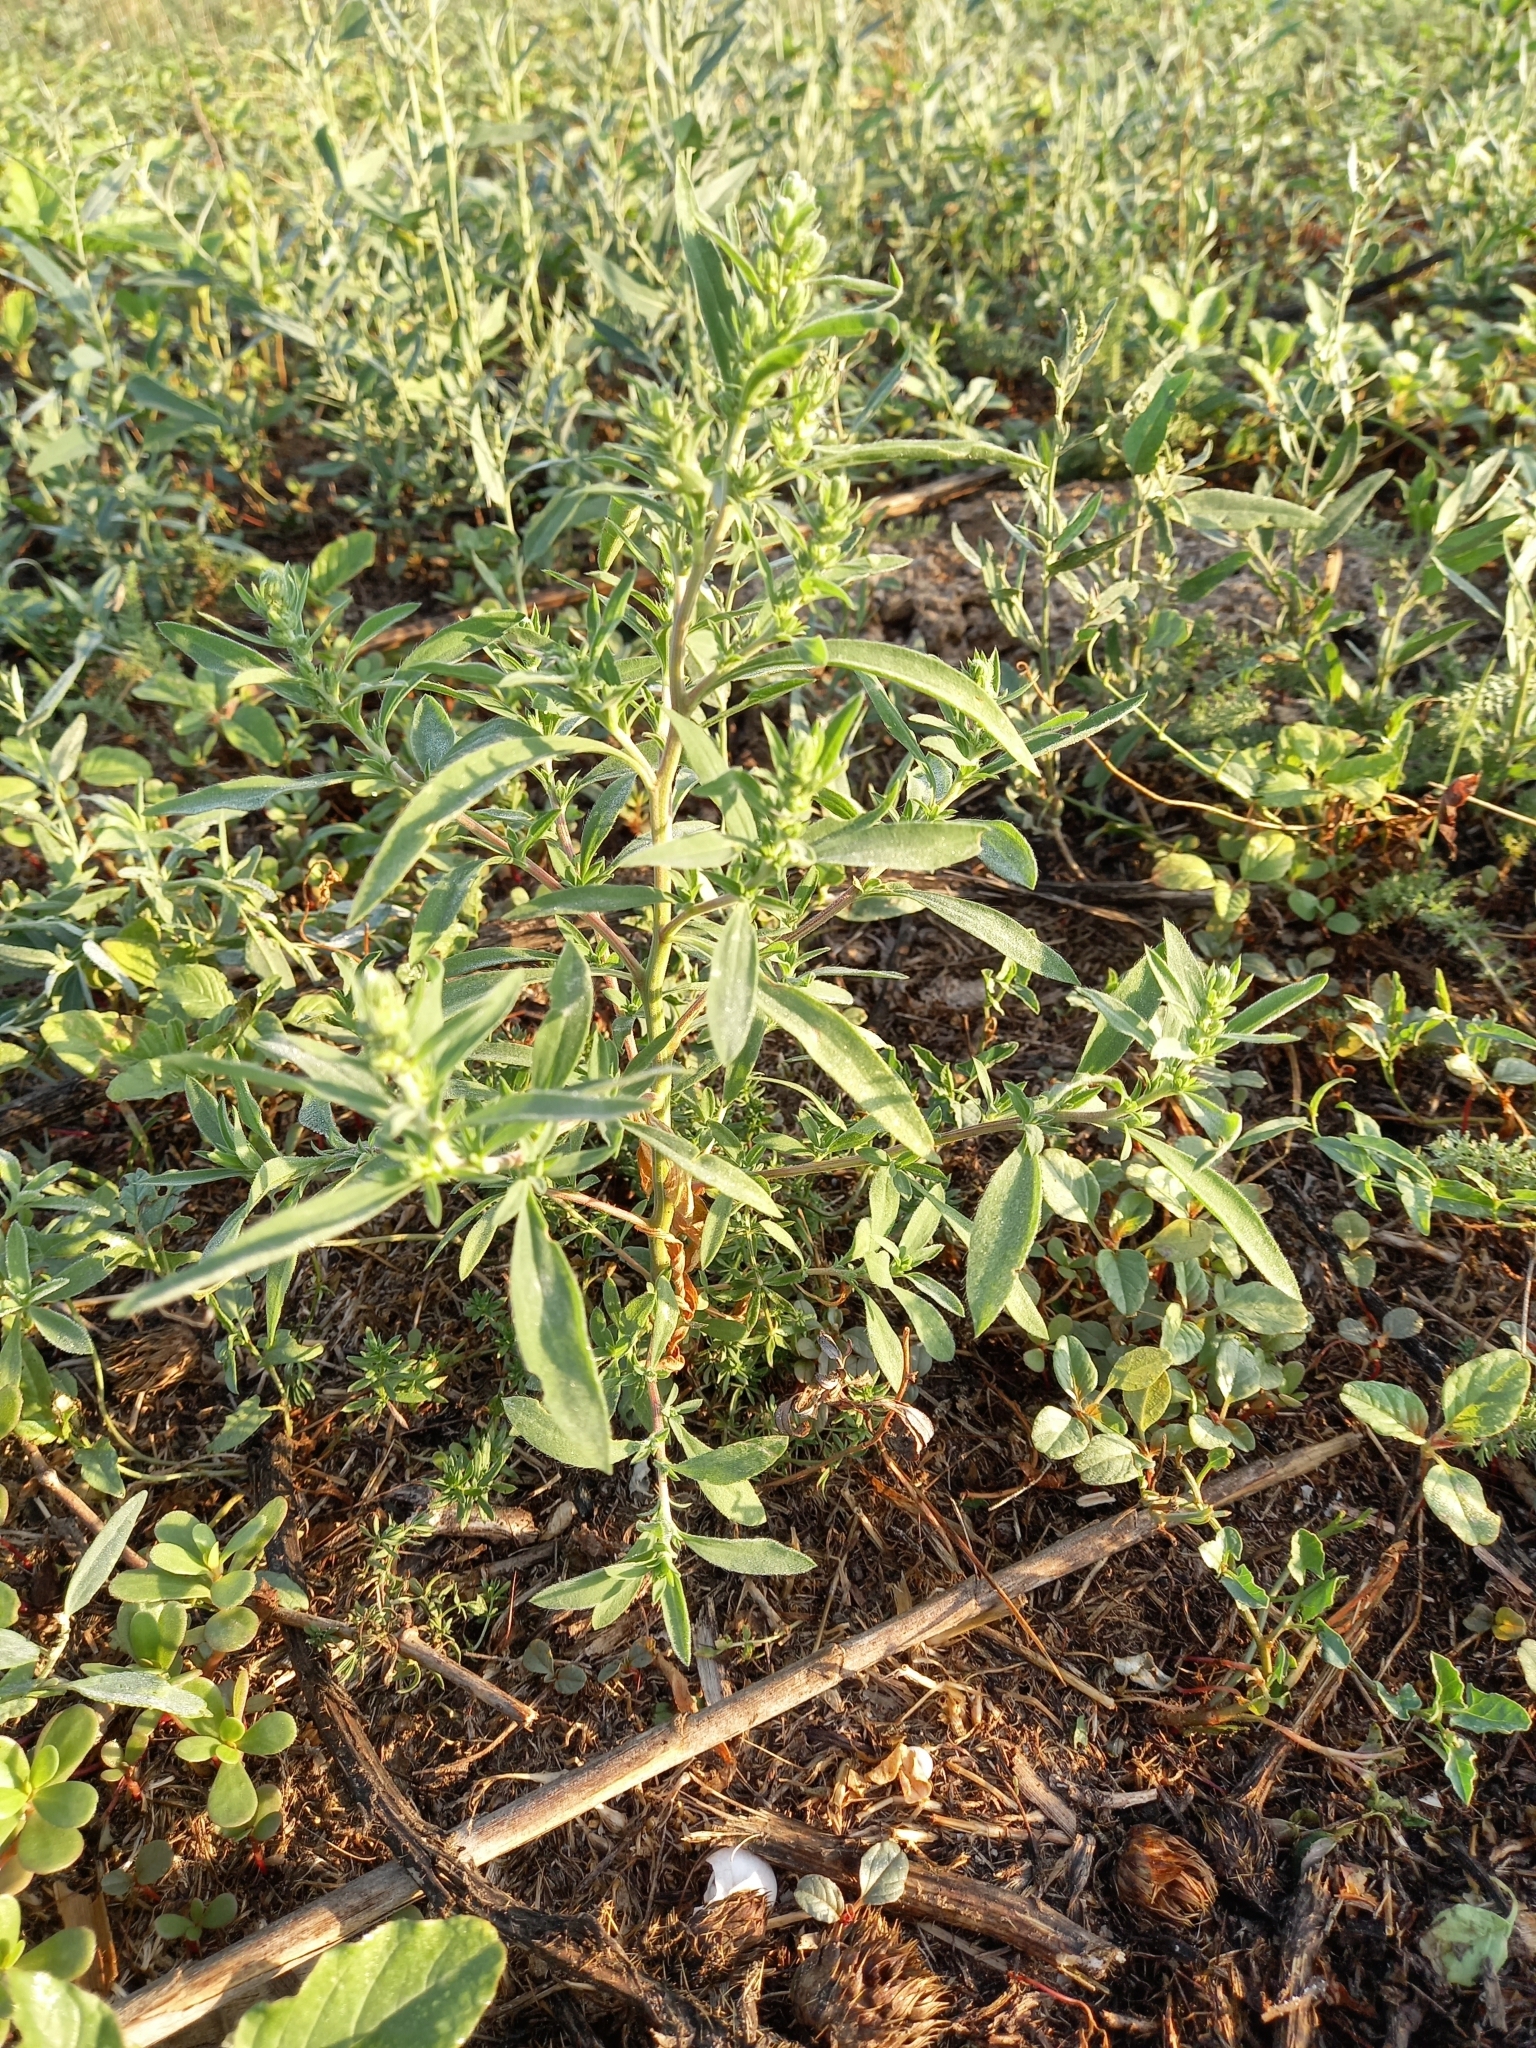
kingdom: Plantae
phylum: Tracheophyta
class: Magnoliopsida
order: Caryophyllales
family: Amaranthaceae
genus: Bassia
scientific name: Bassia scoparia
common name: Belvedere
